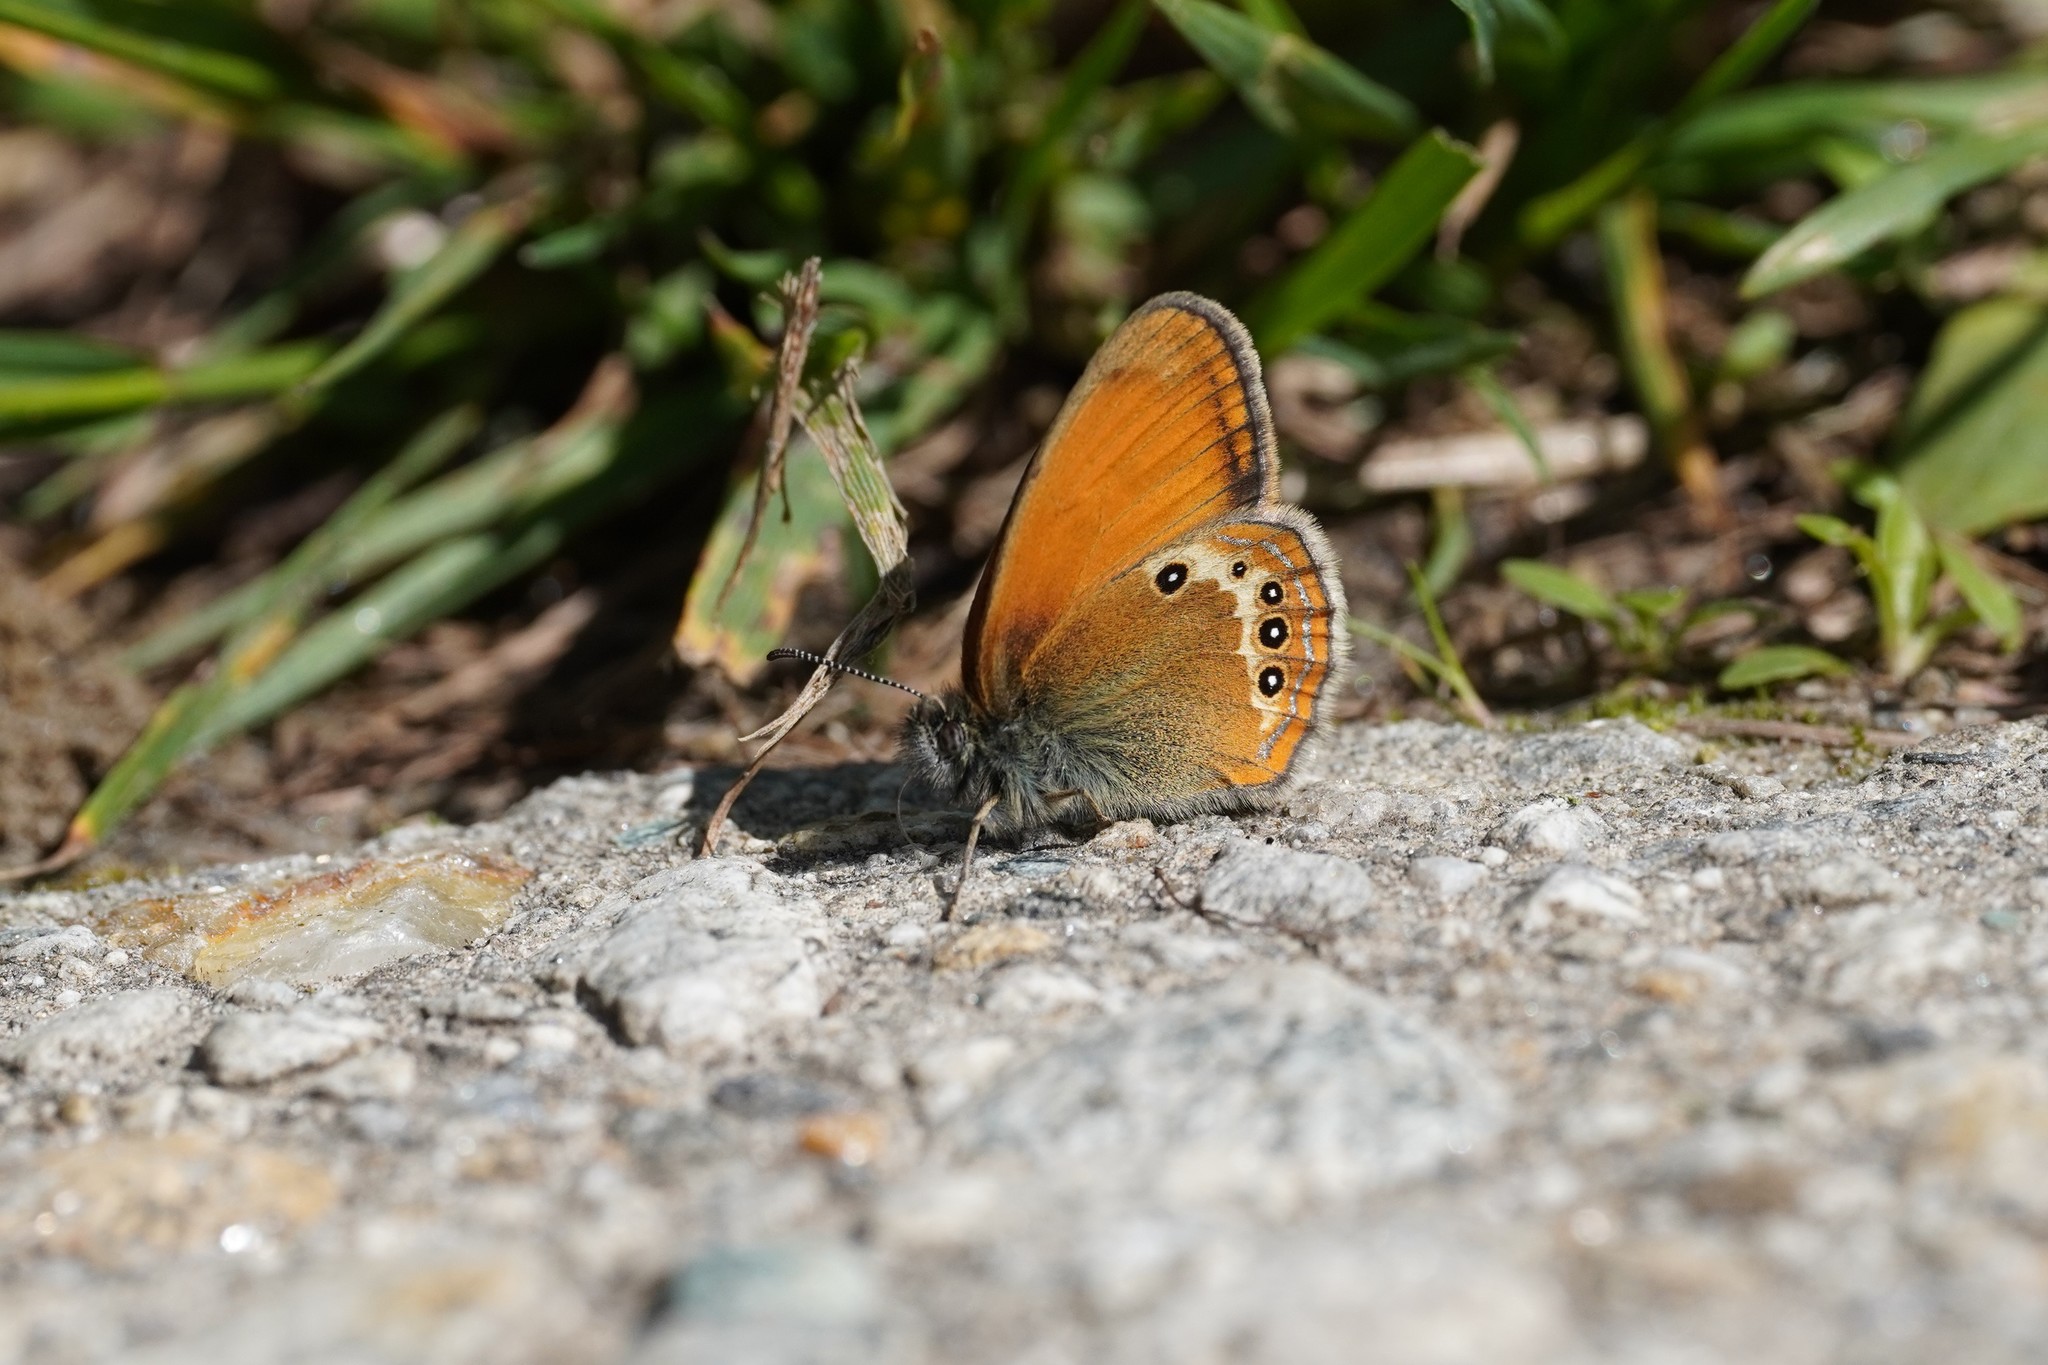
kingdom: Animalia
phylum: Arthropoda
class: Insecta
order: Lepidoptera
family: Nymphalidae
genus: Coenonympha
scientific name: Coenonympha arcania
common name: Pearly heath
